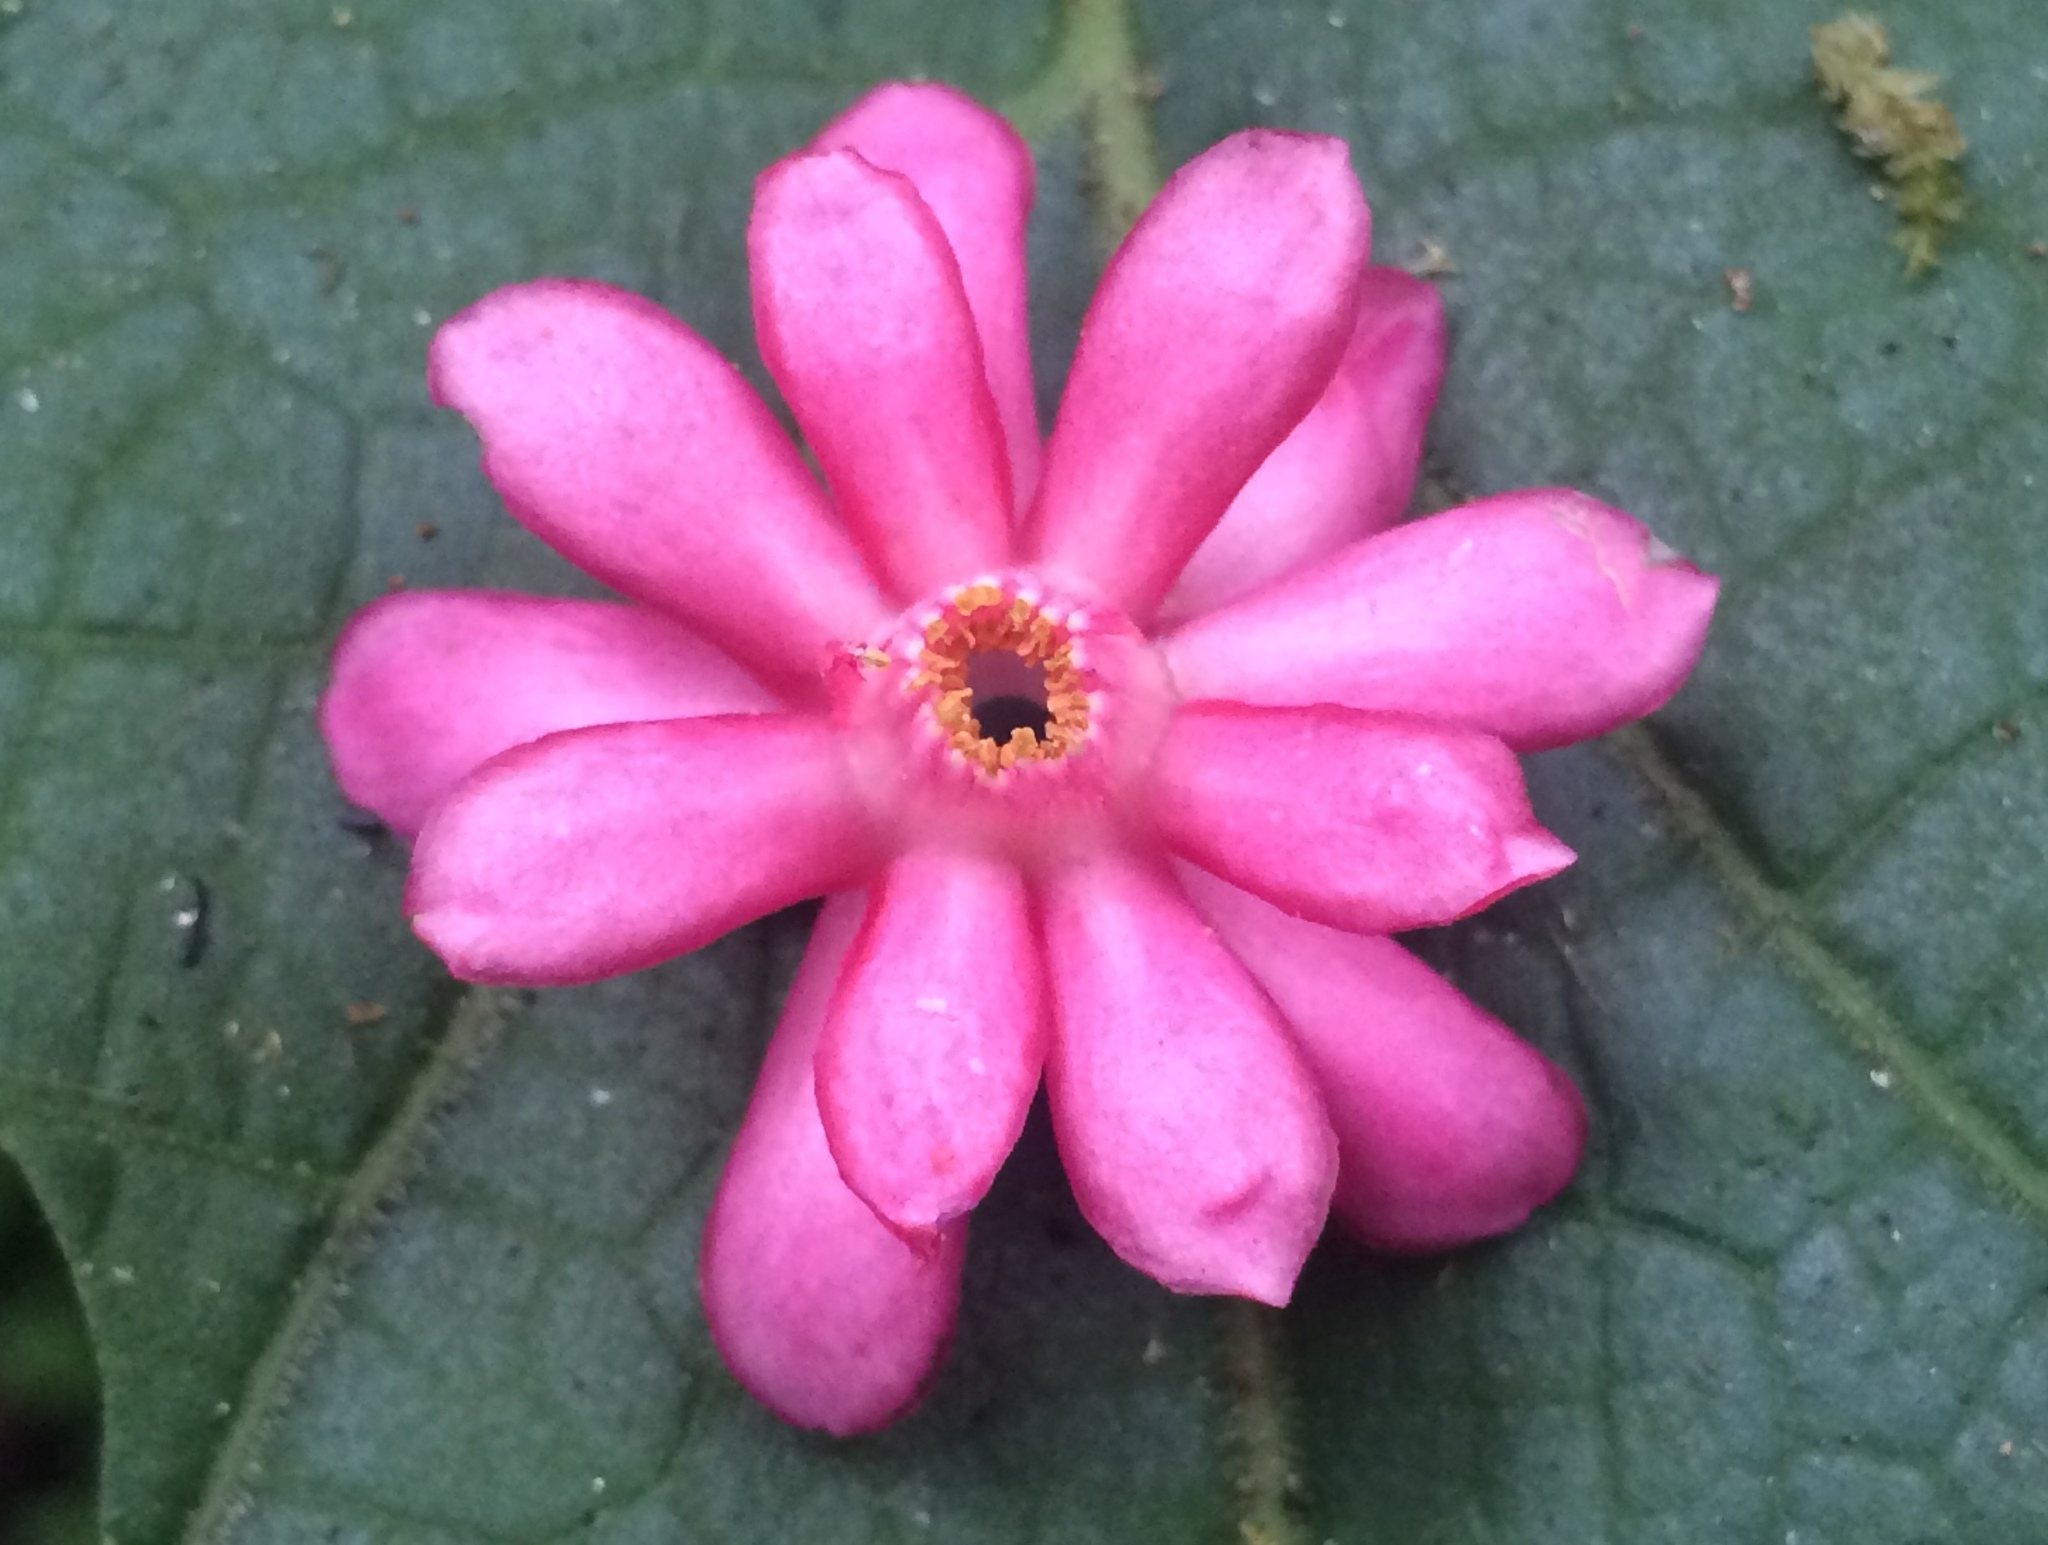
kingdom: Plantae
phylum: Tracheophyta
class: Magnoliopsida
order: Ericales
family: Symplocaceae
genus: Symplocos
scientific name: Symplocos coccinea
